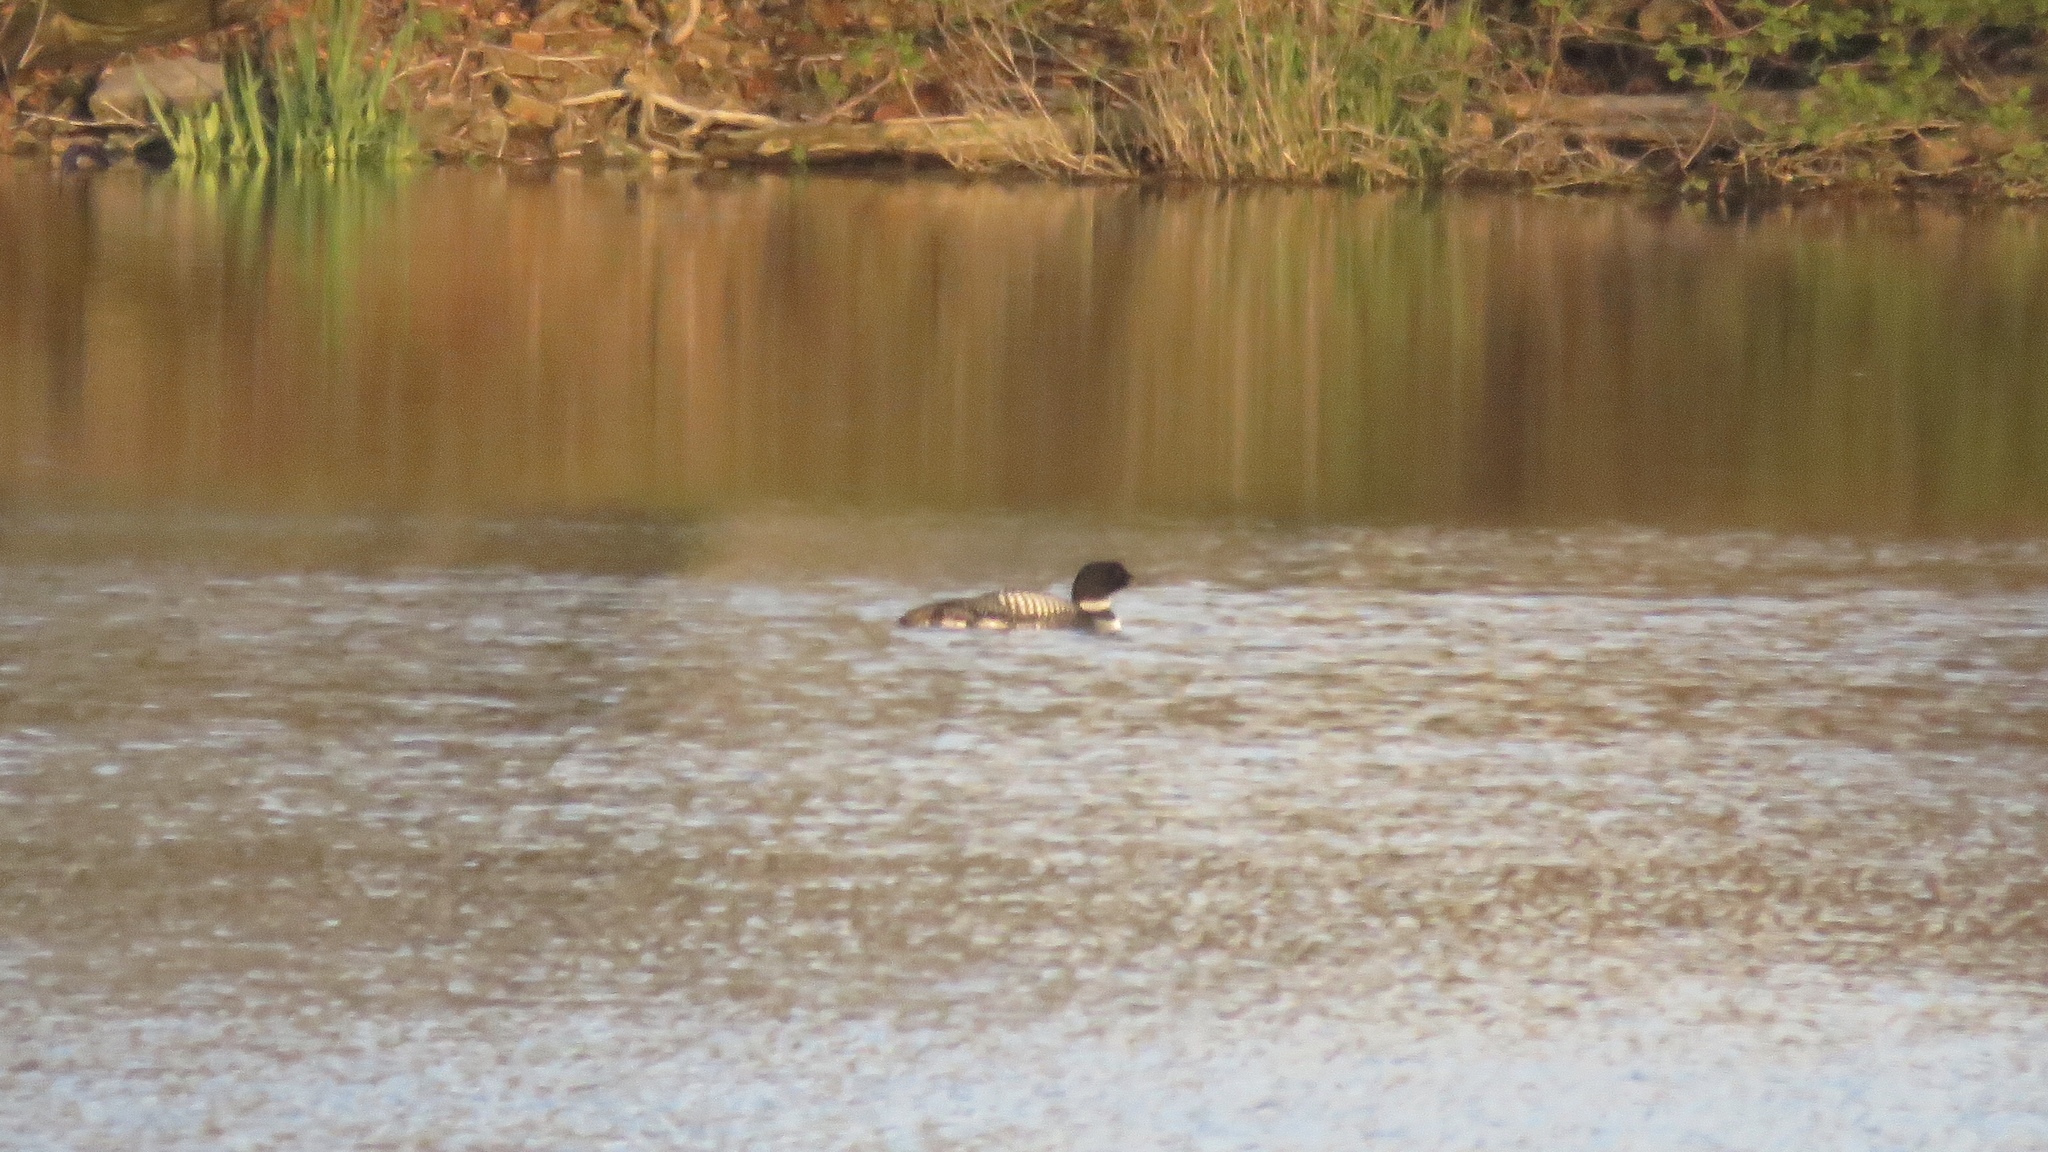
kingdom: Animalia
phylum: Chordata
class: Aves
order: Gaviiformes
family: Gaviidae
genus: Gavia
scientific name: Gavia immer
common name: Common loon
